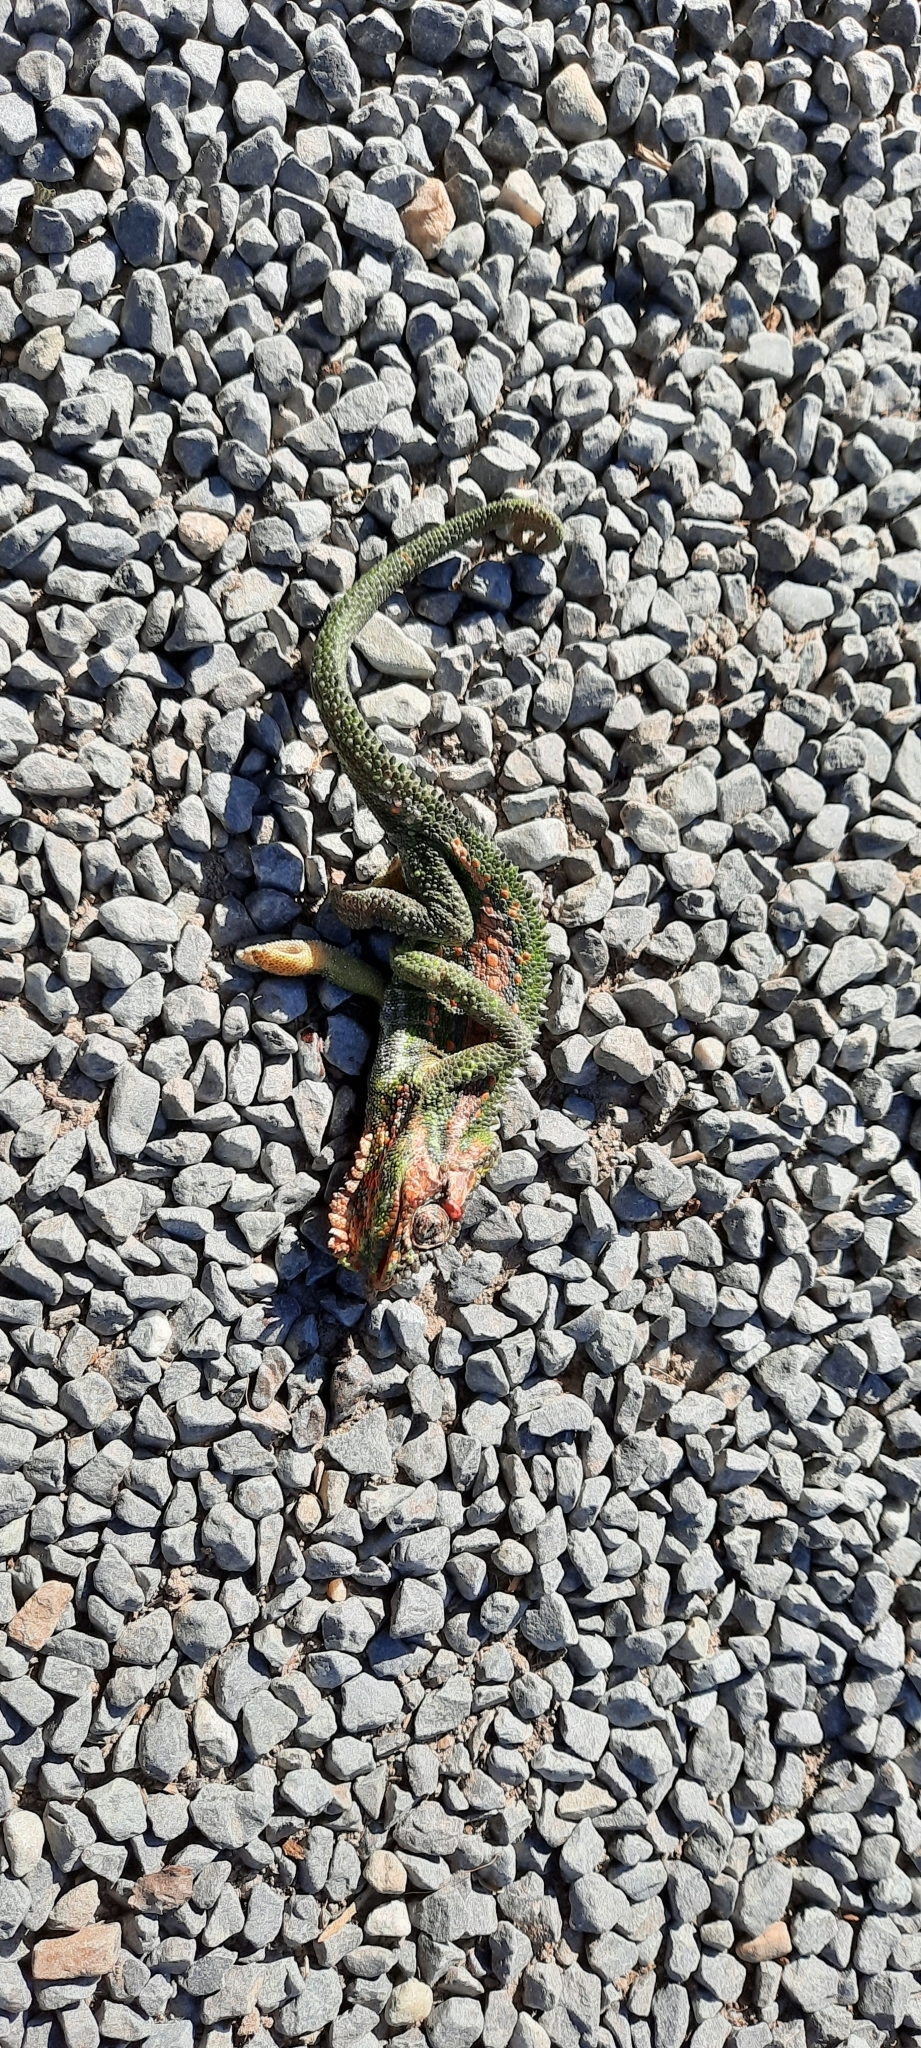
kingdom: Animalia
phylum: Chordata
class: Squamata
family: Chamaeleonidae
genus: Bradypodion
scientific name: Bradypodion pumilum
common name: Cape dwarf chameleon
